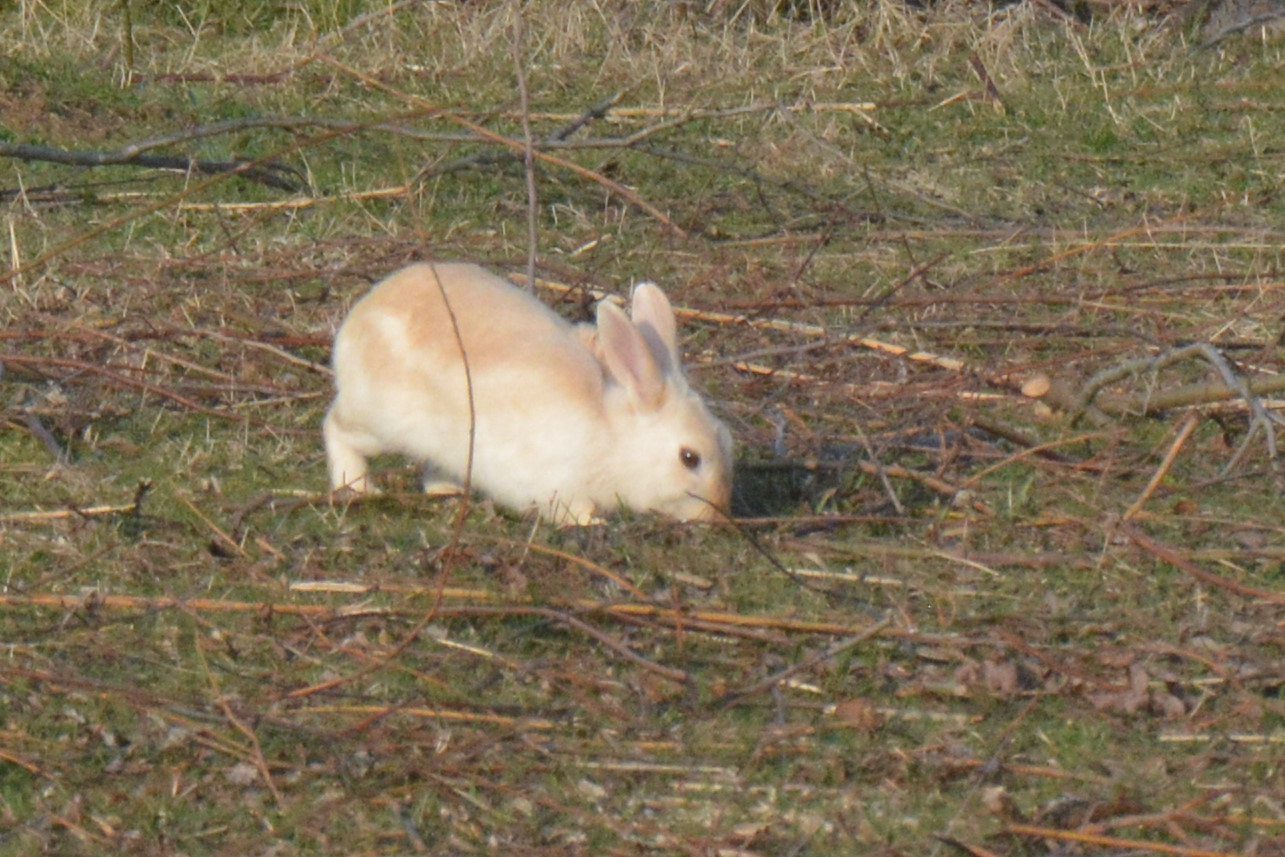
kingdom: Animalia
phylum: Chordata
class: Mammalia
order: Lagomorpha
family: Leporidae
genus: Oryctolagus
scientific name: Oryctolagus cuniculus
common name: European rabbit
